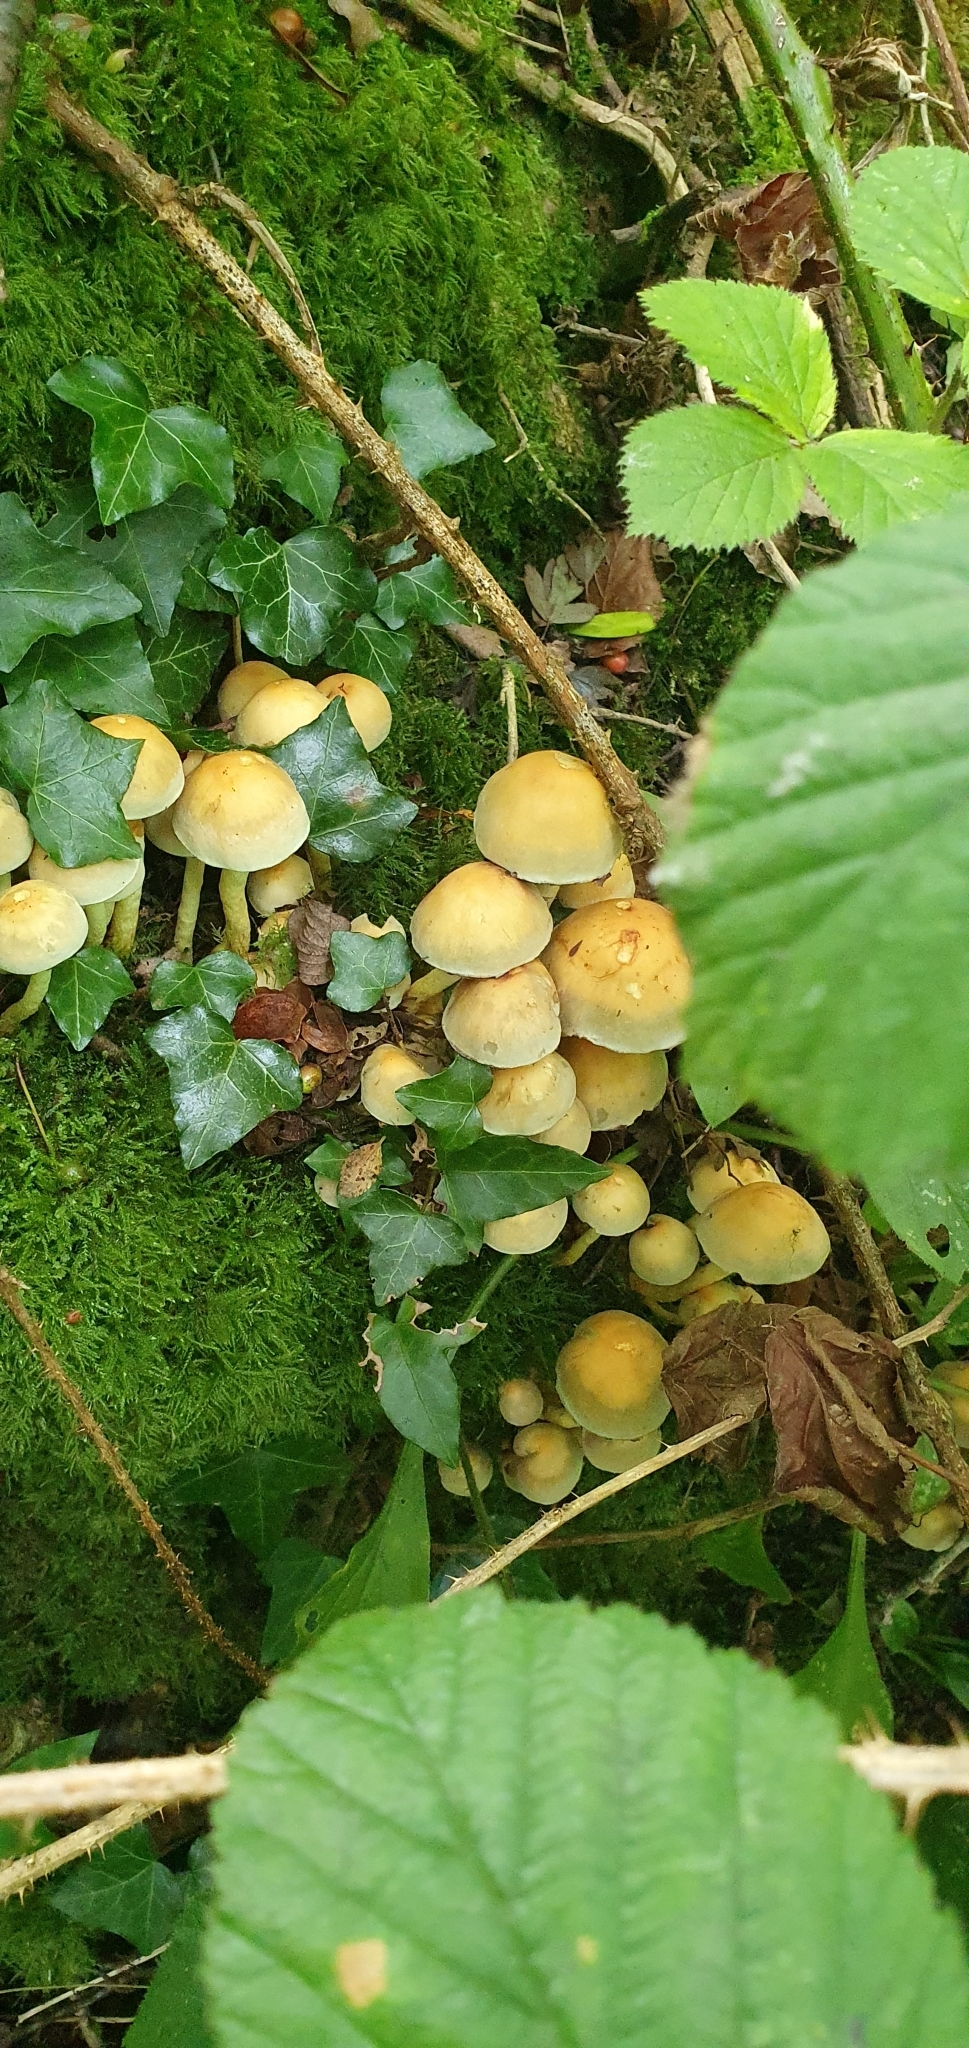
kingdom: Fungi
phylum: Basidiomycota
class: Agaricomycetes
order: Agaricales
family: Strophariaceae
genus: Hypholoma
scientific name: Hypholoma fasciculare
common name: Sulphur tuft
